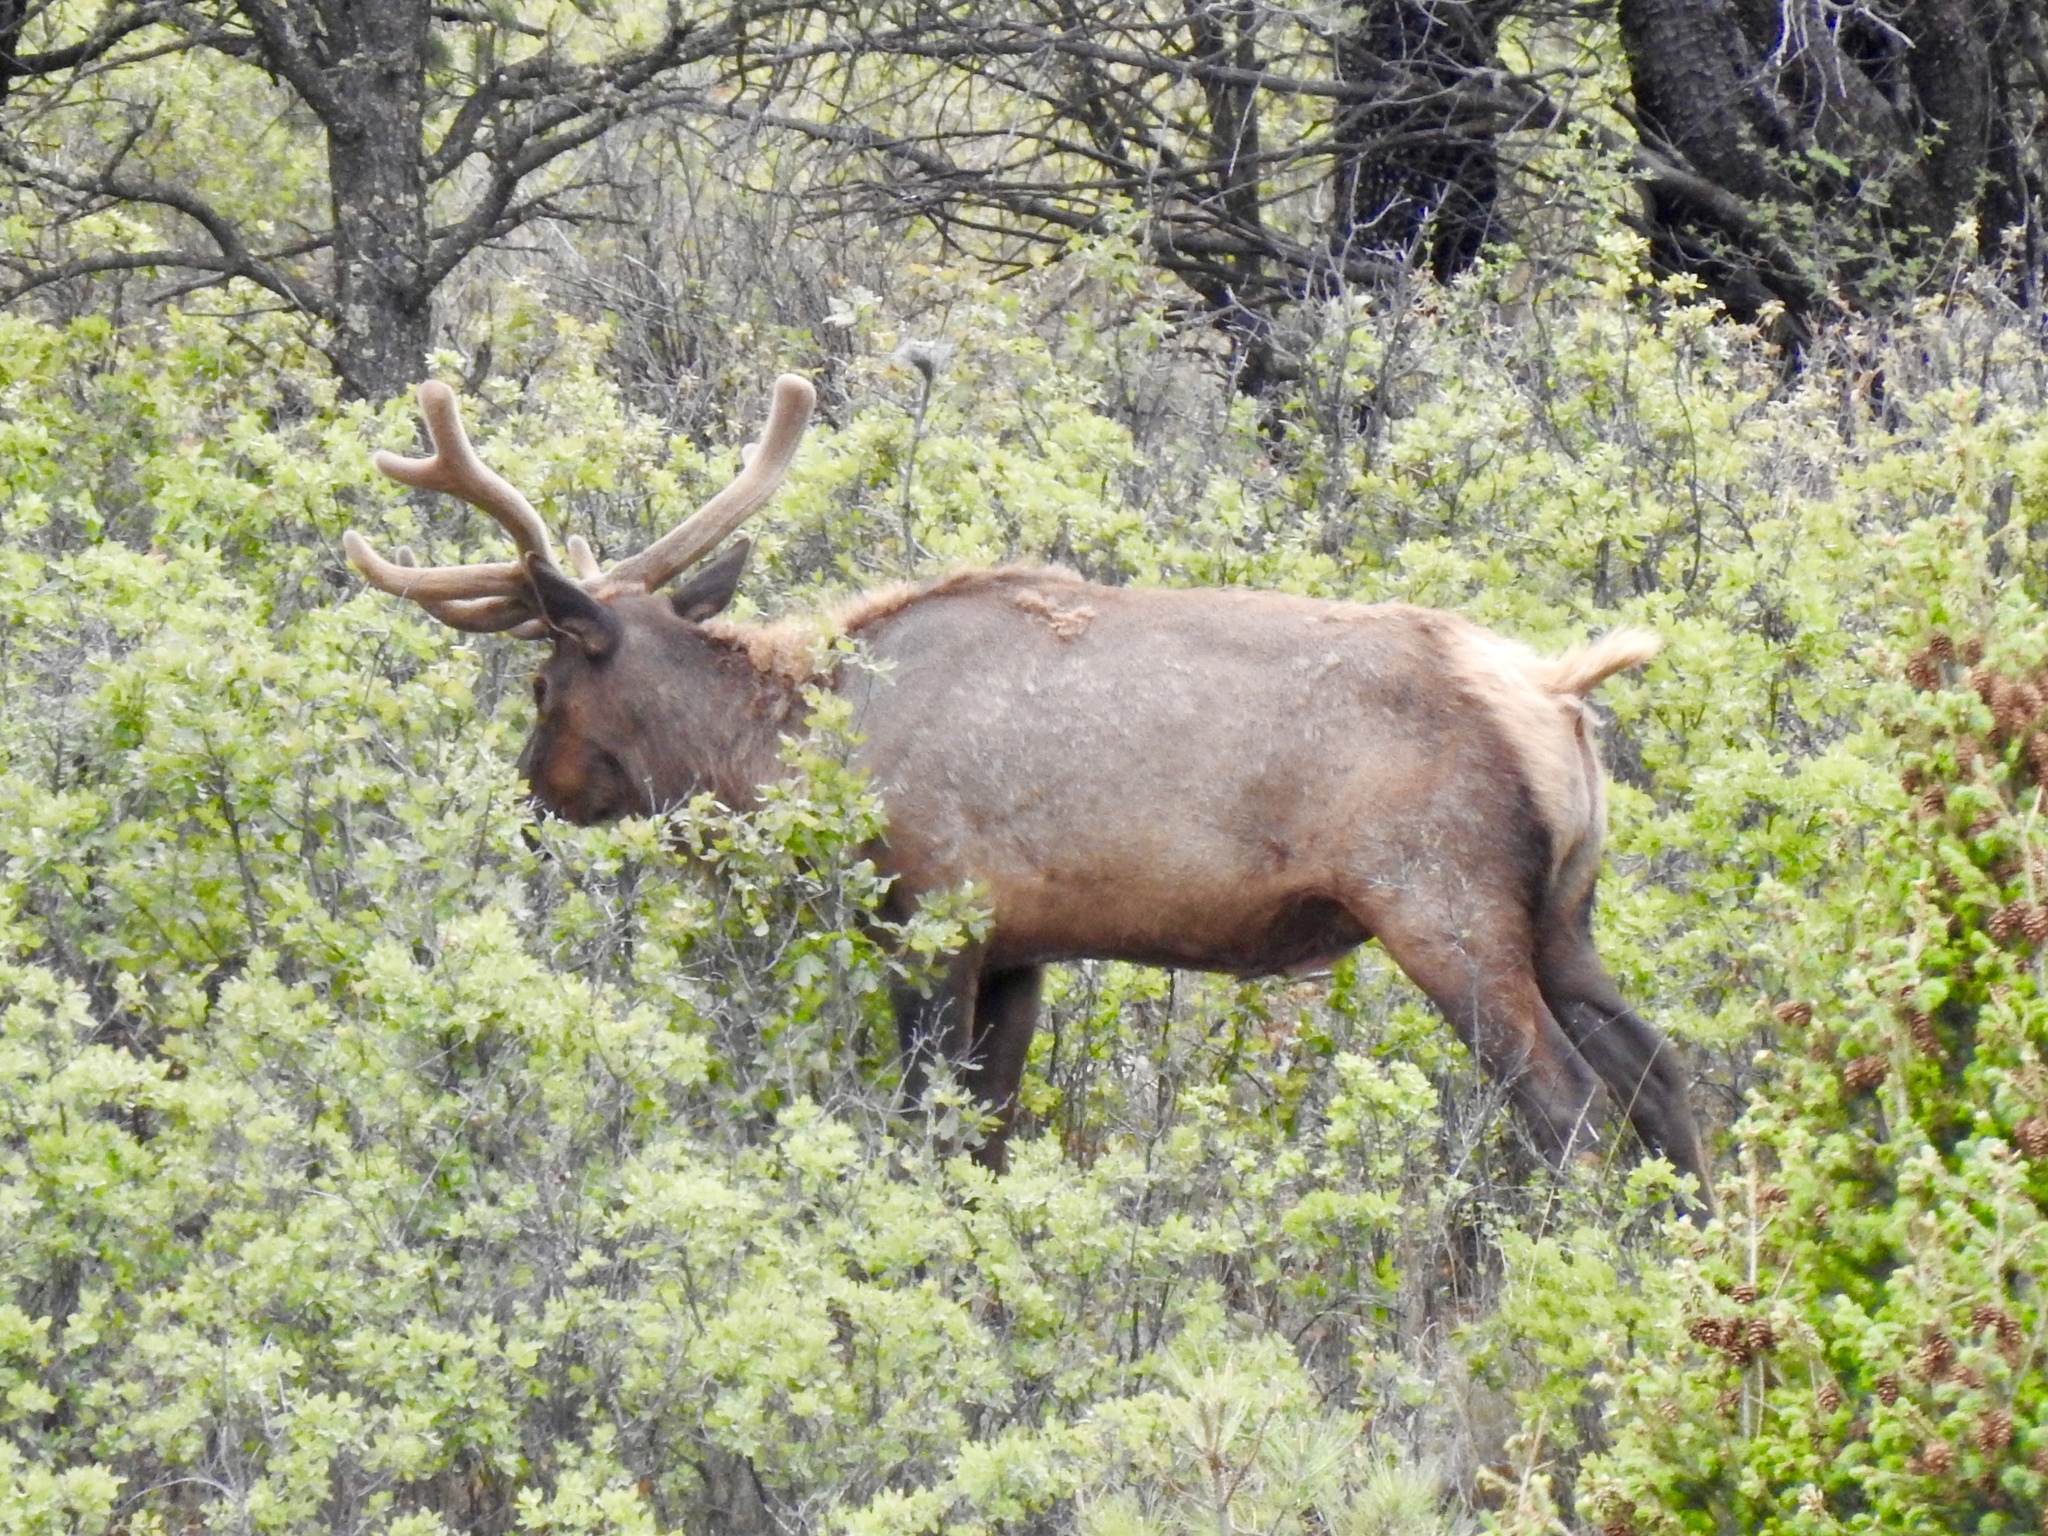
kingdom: Animalia
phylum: Chordata
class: Mammalia
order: Artiodactyla
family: Cervidae
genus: Cervus
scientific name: Cervus elaphus
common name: Red deer
